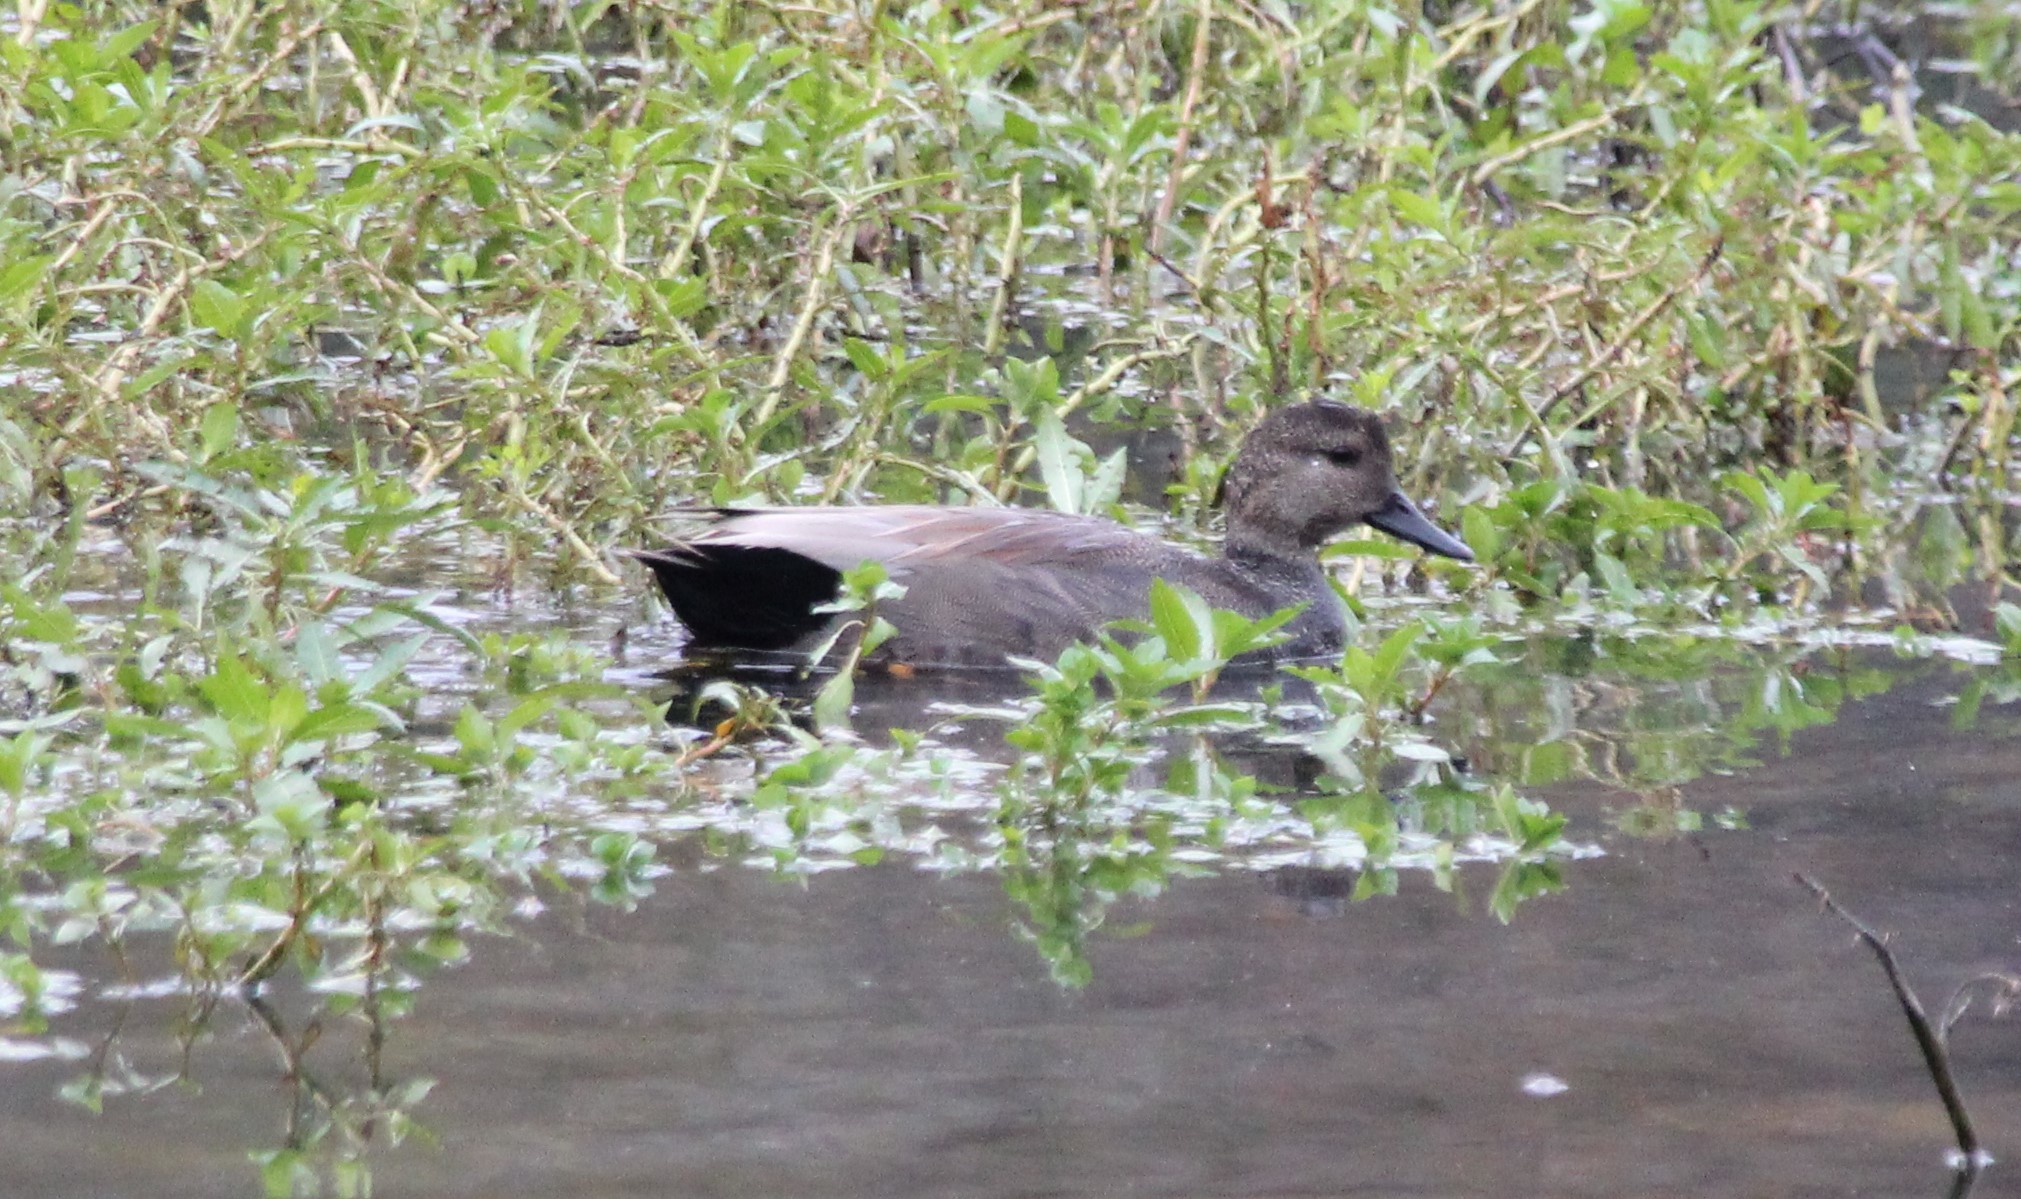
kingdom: Animalia
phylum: Chordata
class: Aves
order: Anseriformes
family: Anatidae
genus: Mareca
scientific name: Mareca strepera
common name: Gadwall
